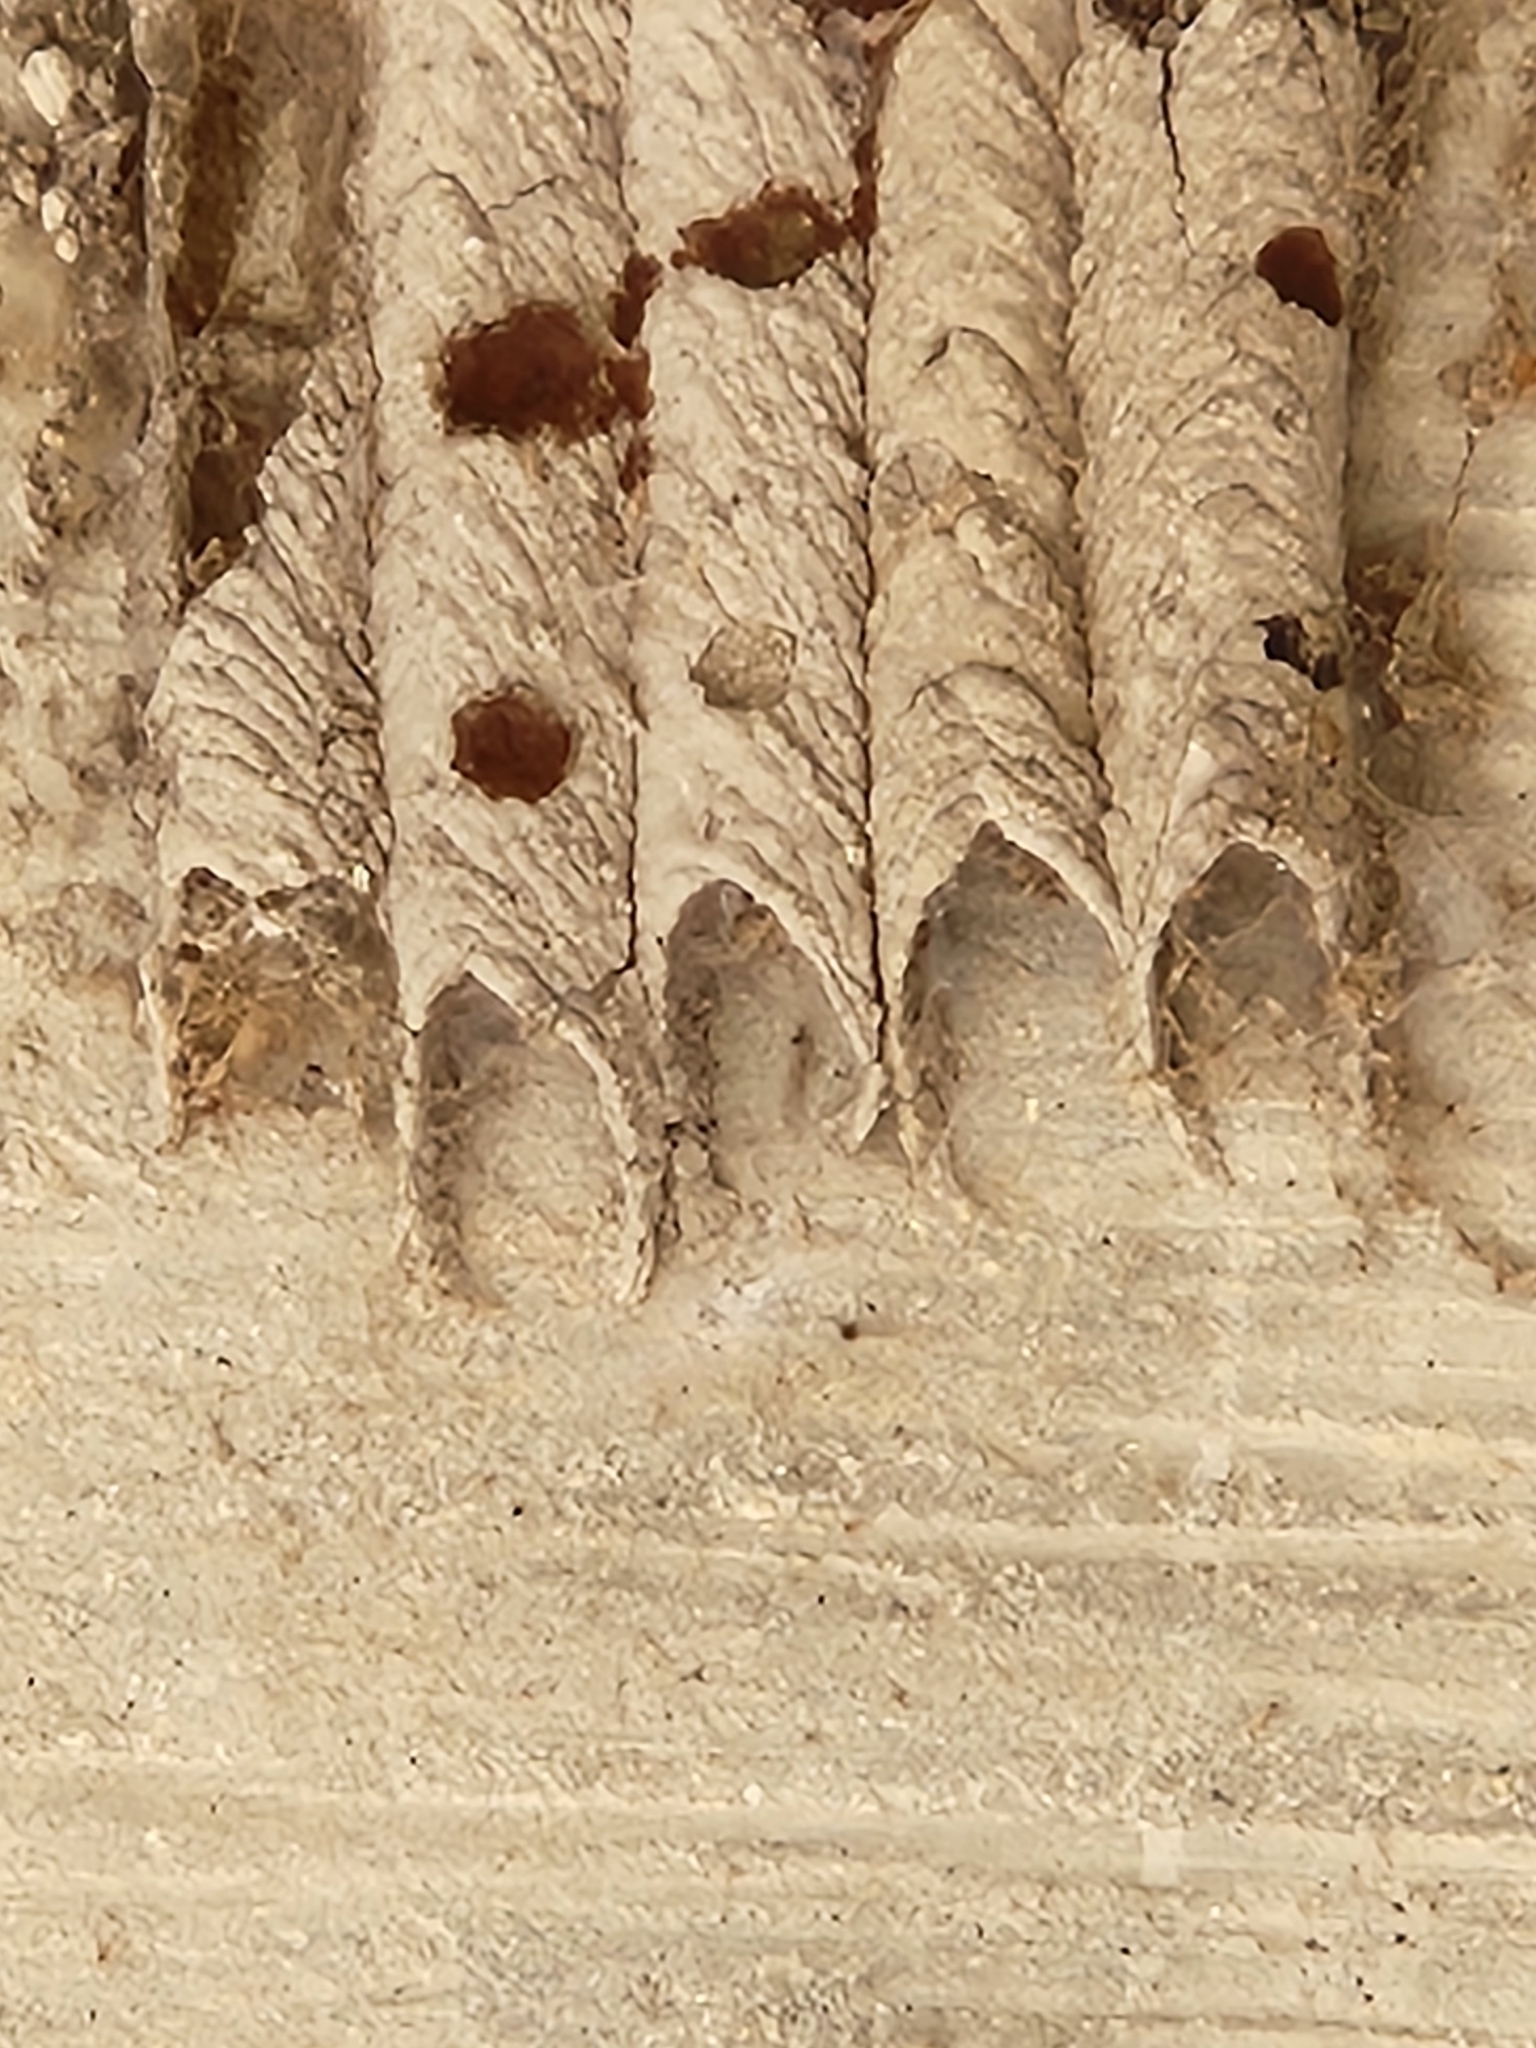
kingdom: Animalia
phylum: Arthropoda
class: Insecta
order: Hymenoptera
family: Crabronidae
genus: Trypoxylon
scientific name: Trypoxylon politum
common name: Organ-pipe mud-dauber wasp
